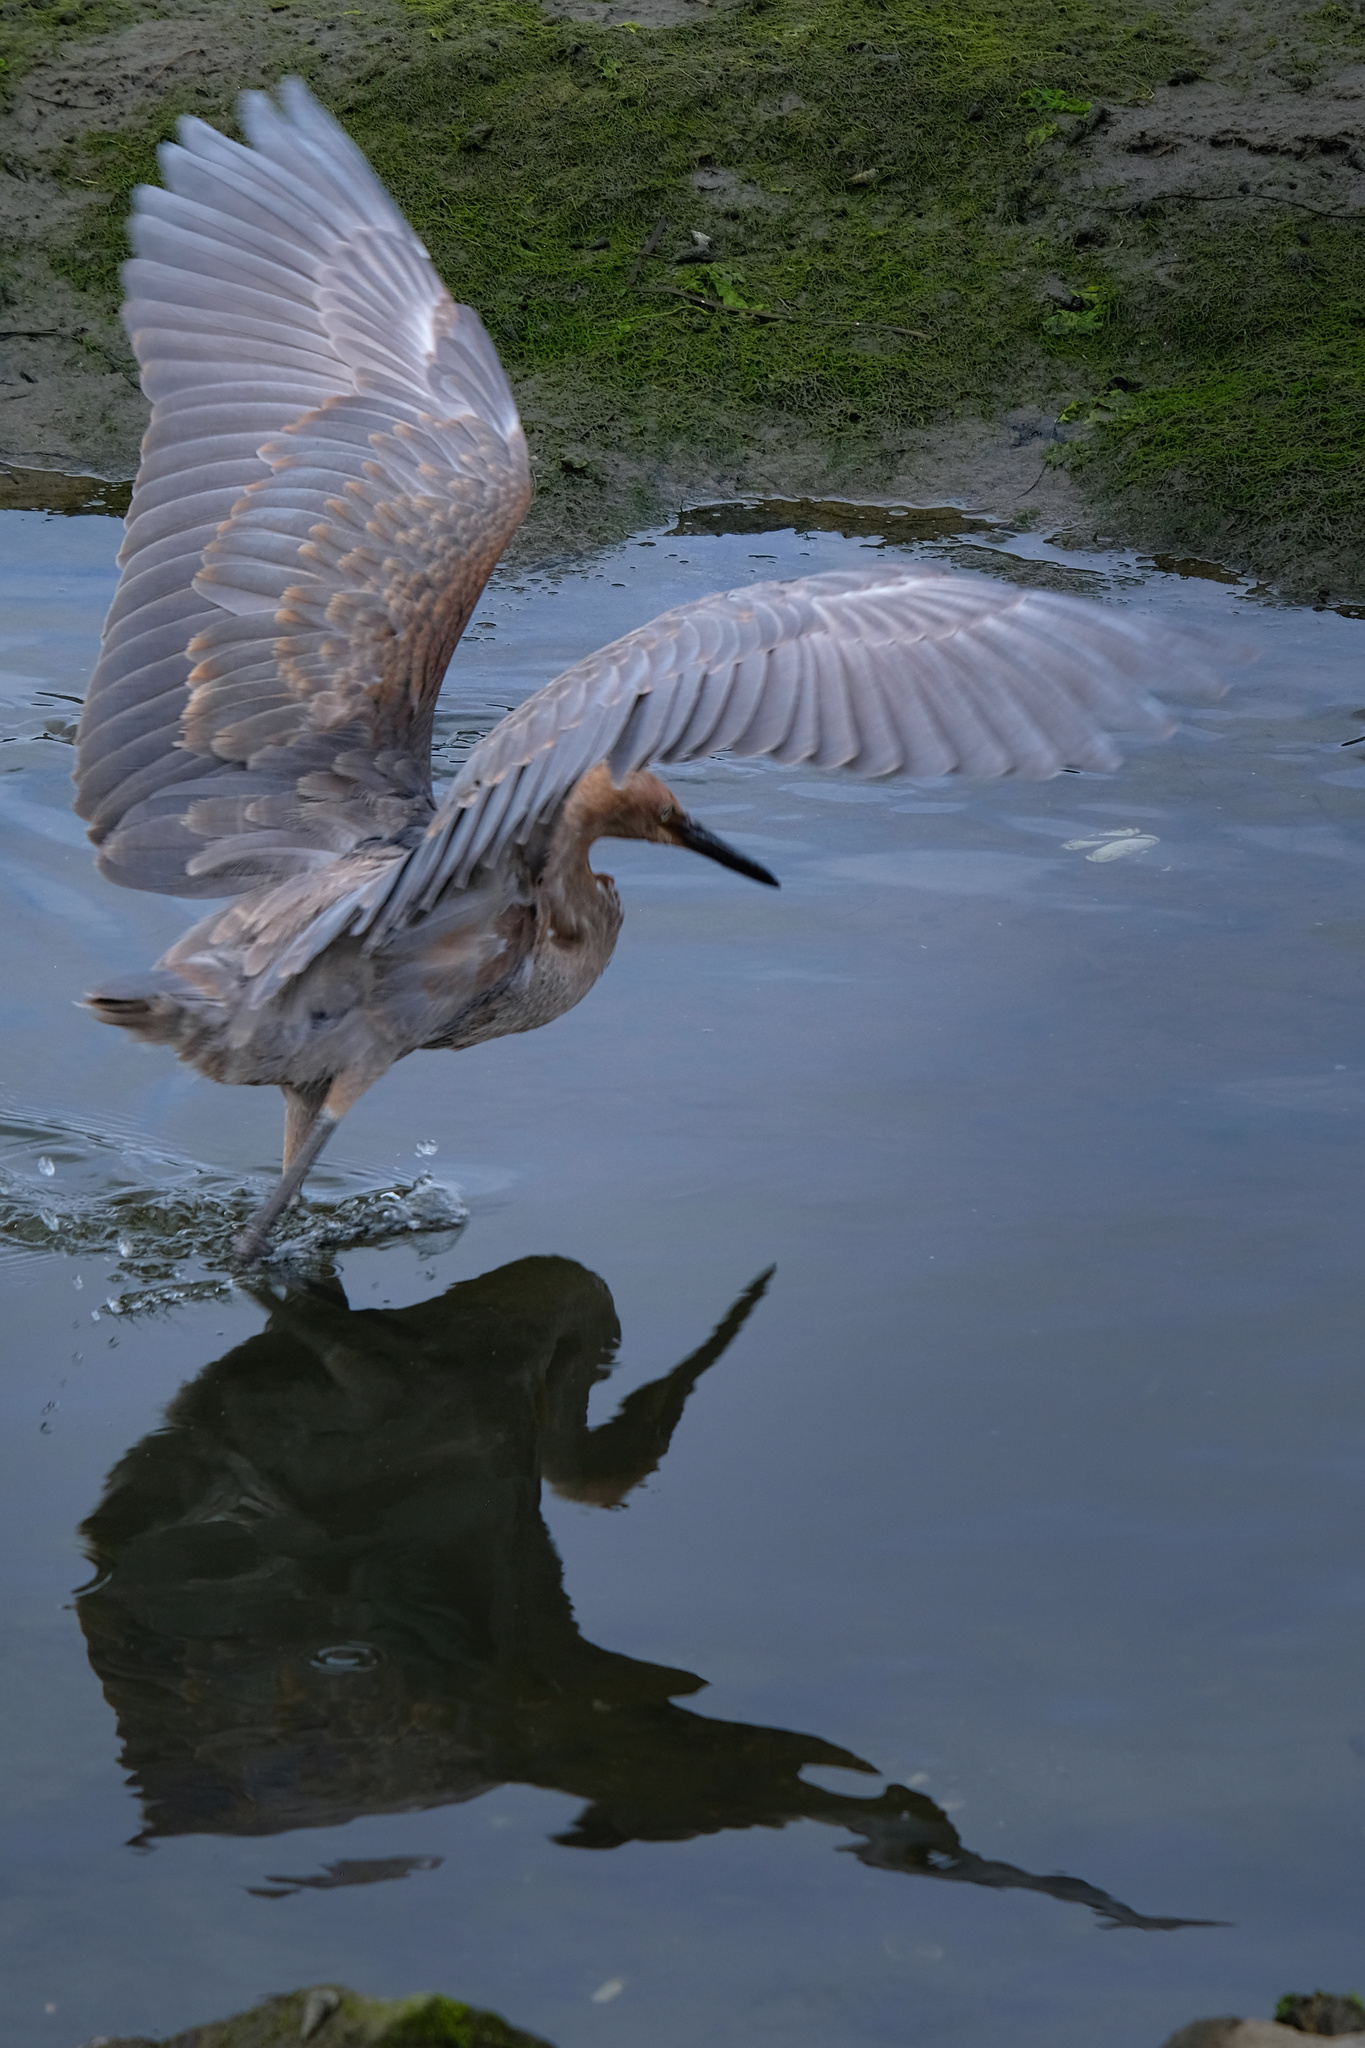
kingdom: Animalia
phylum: Chordata
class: Aves
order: Pelecaniformes
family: Ardeidae
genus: Egretta
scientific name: Egretta rufescens
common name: Reddish egret
